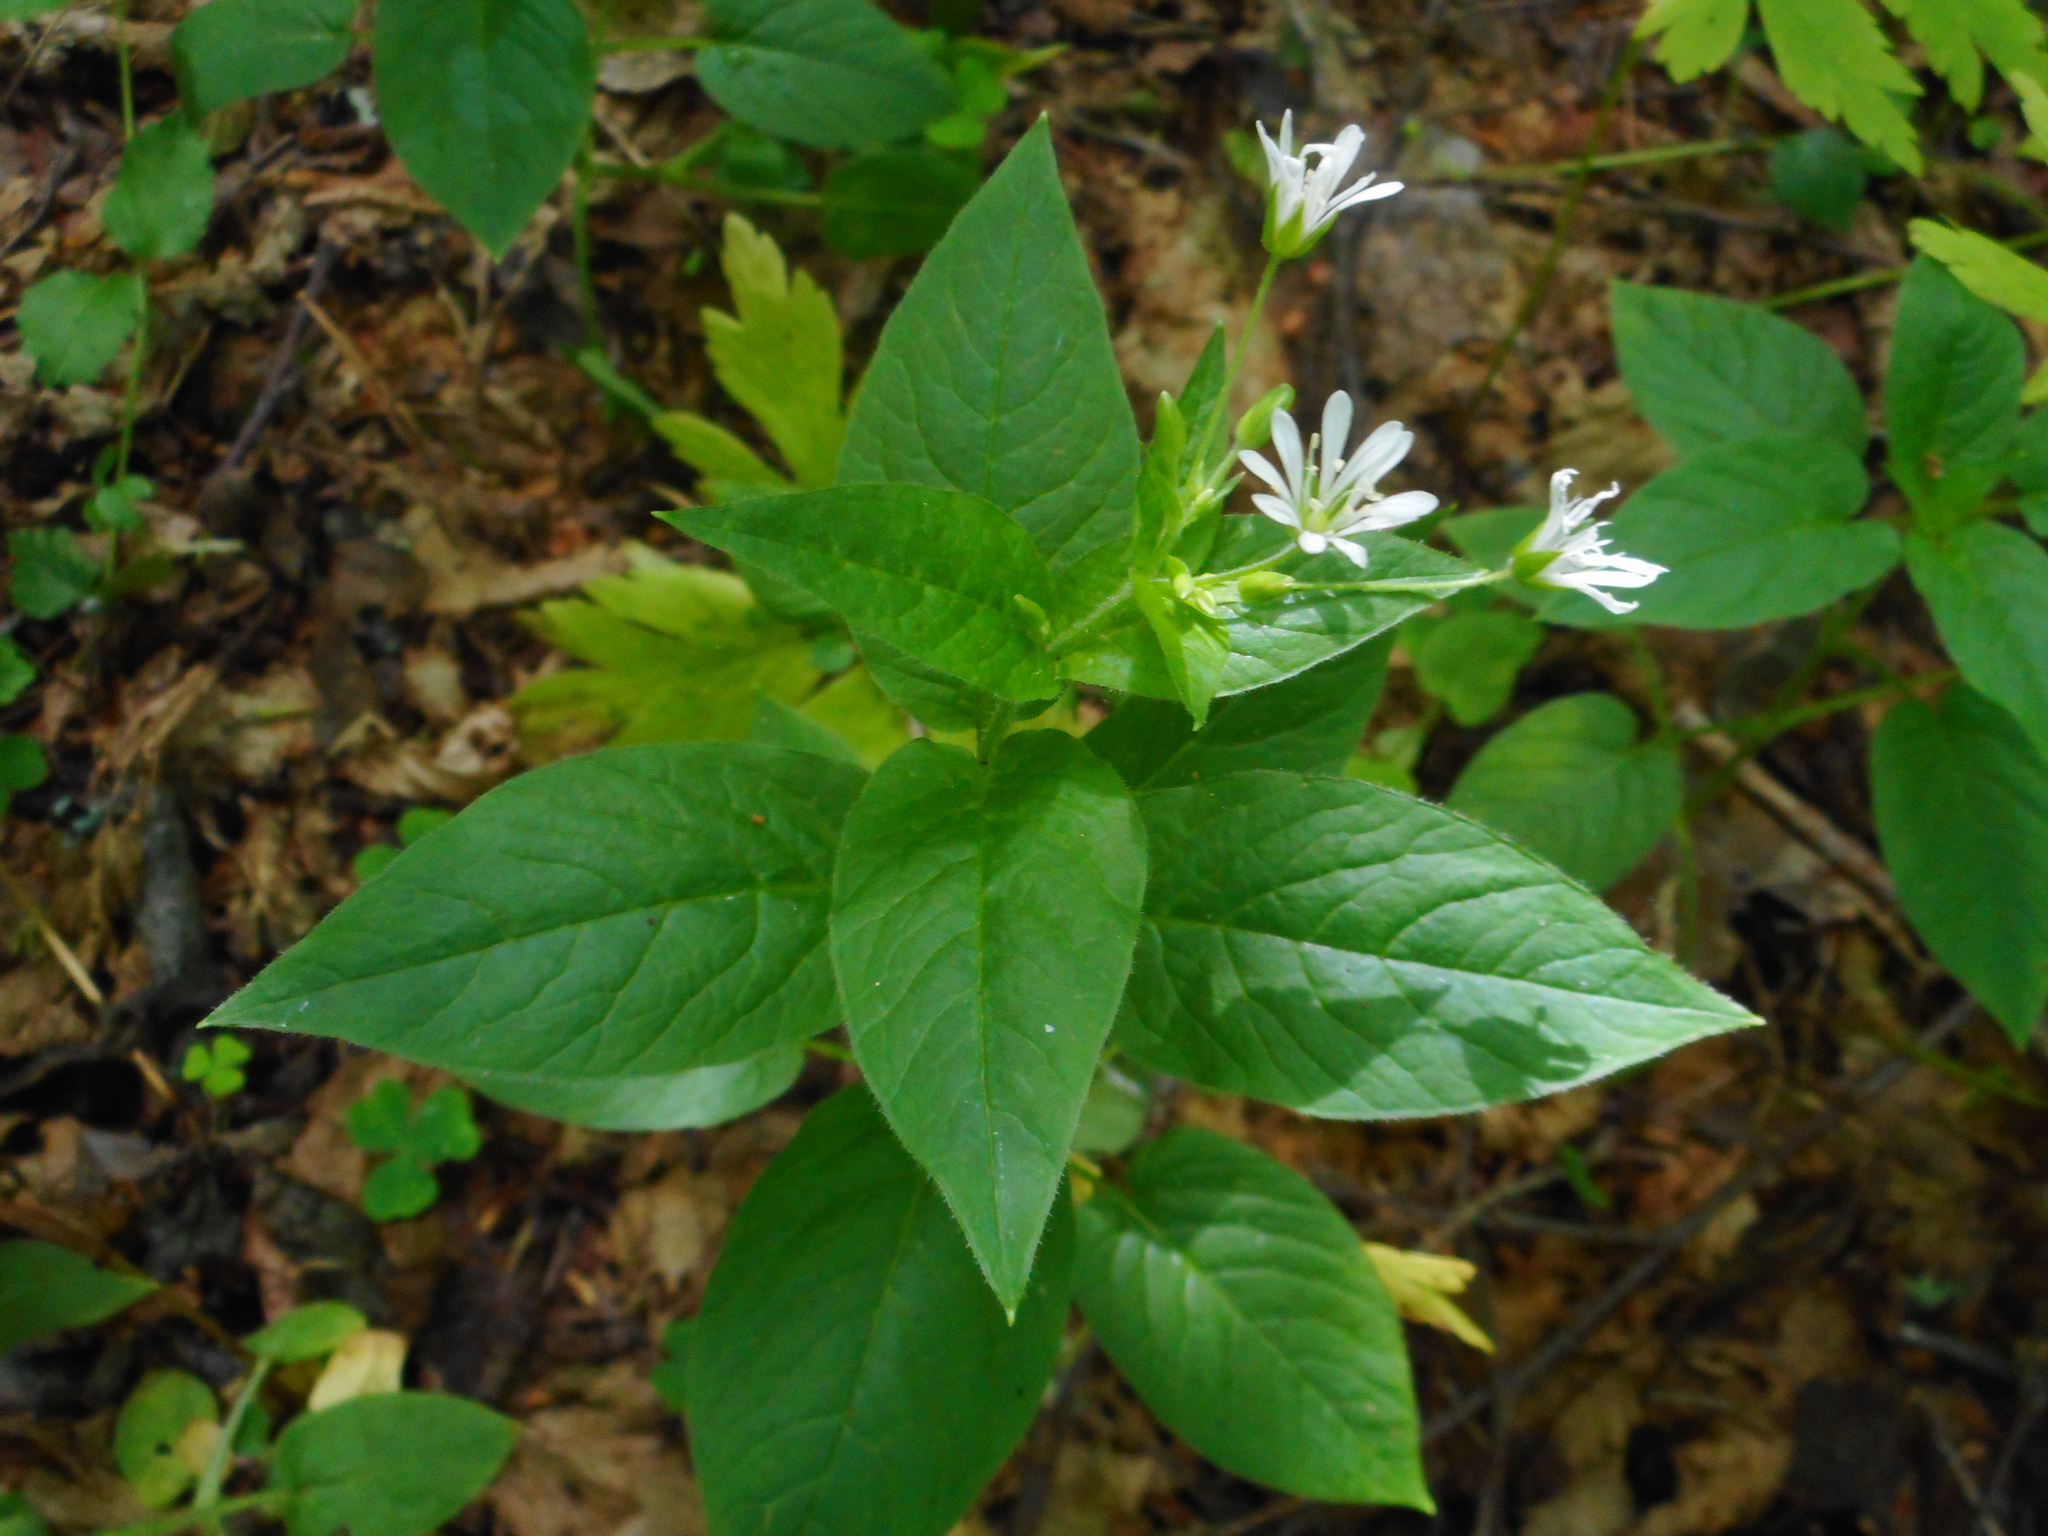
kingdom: Plantae
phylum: Tracheophyta
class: Magnoliopsida
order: Caryophyllales
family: Caryophyllaceae
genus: Stellaria
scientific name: Stellaria nemorum
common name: Wood stitchwort
